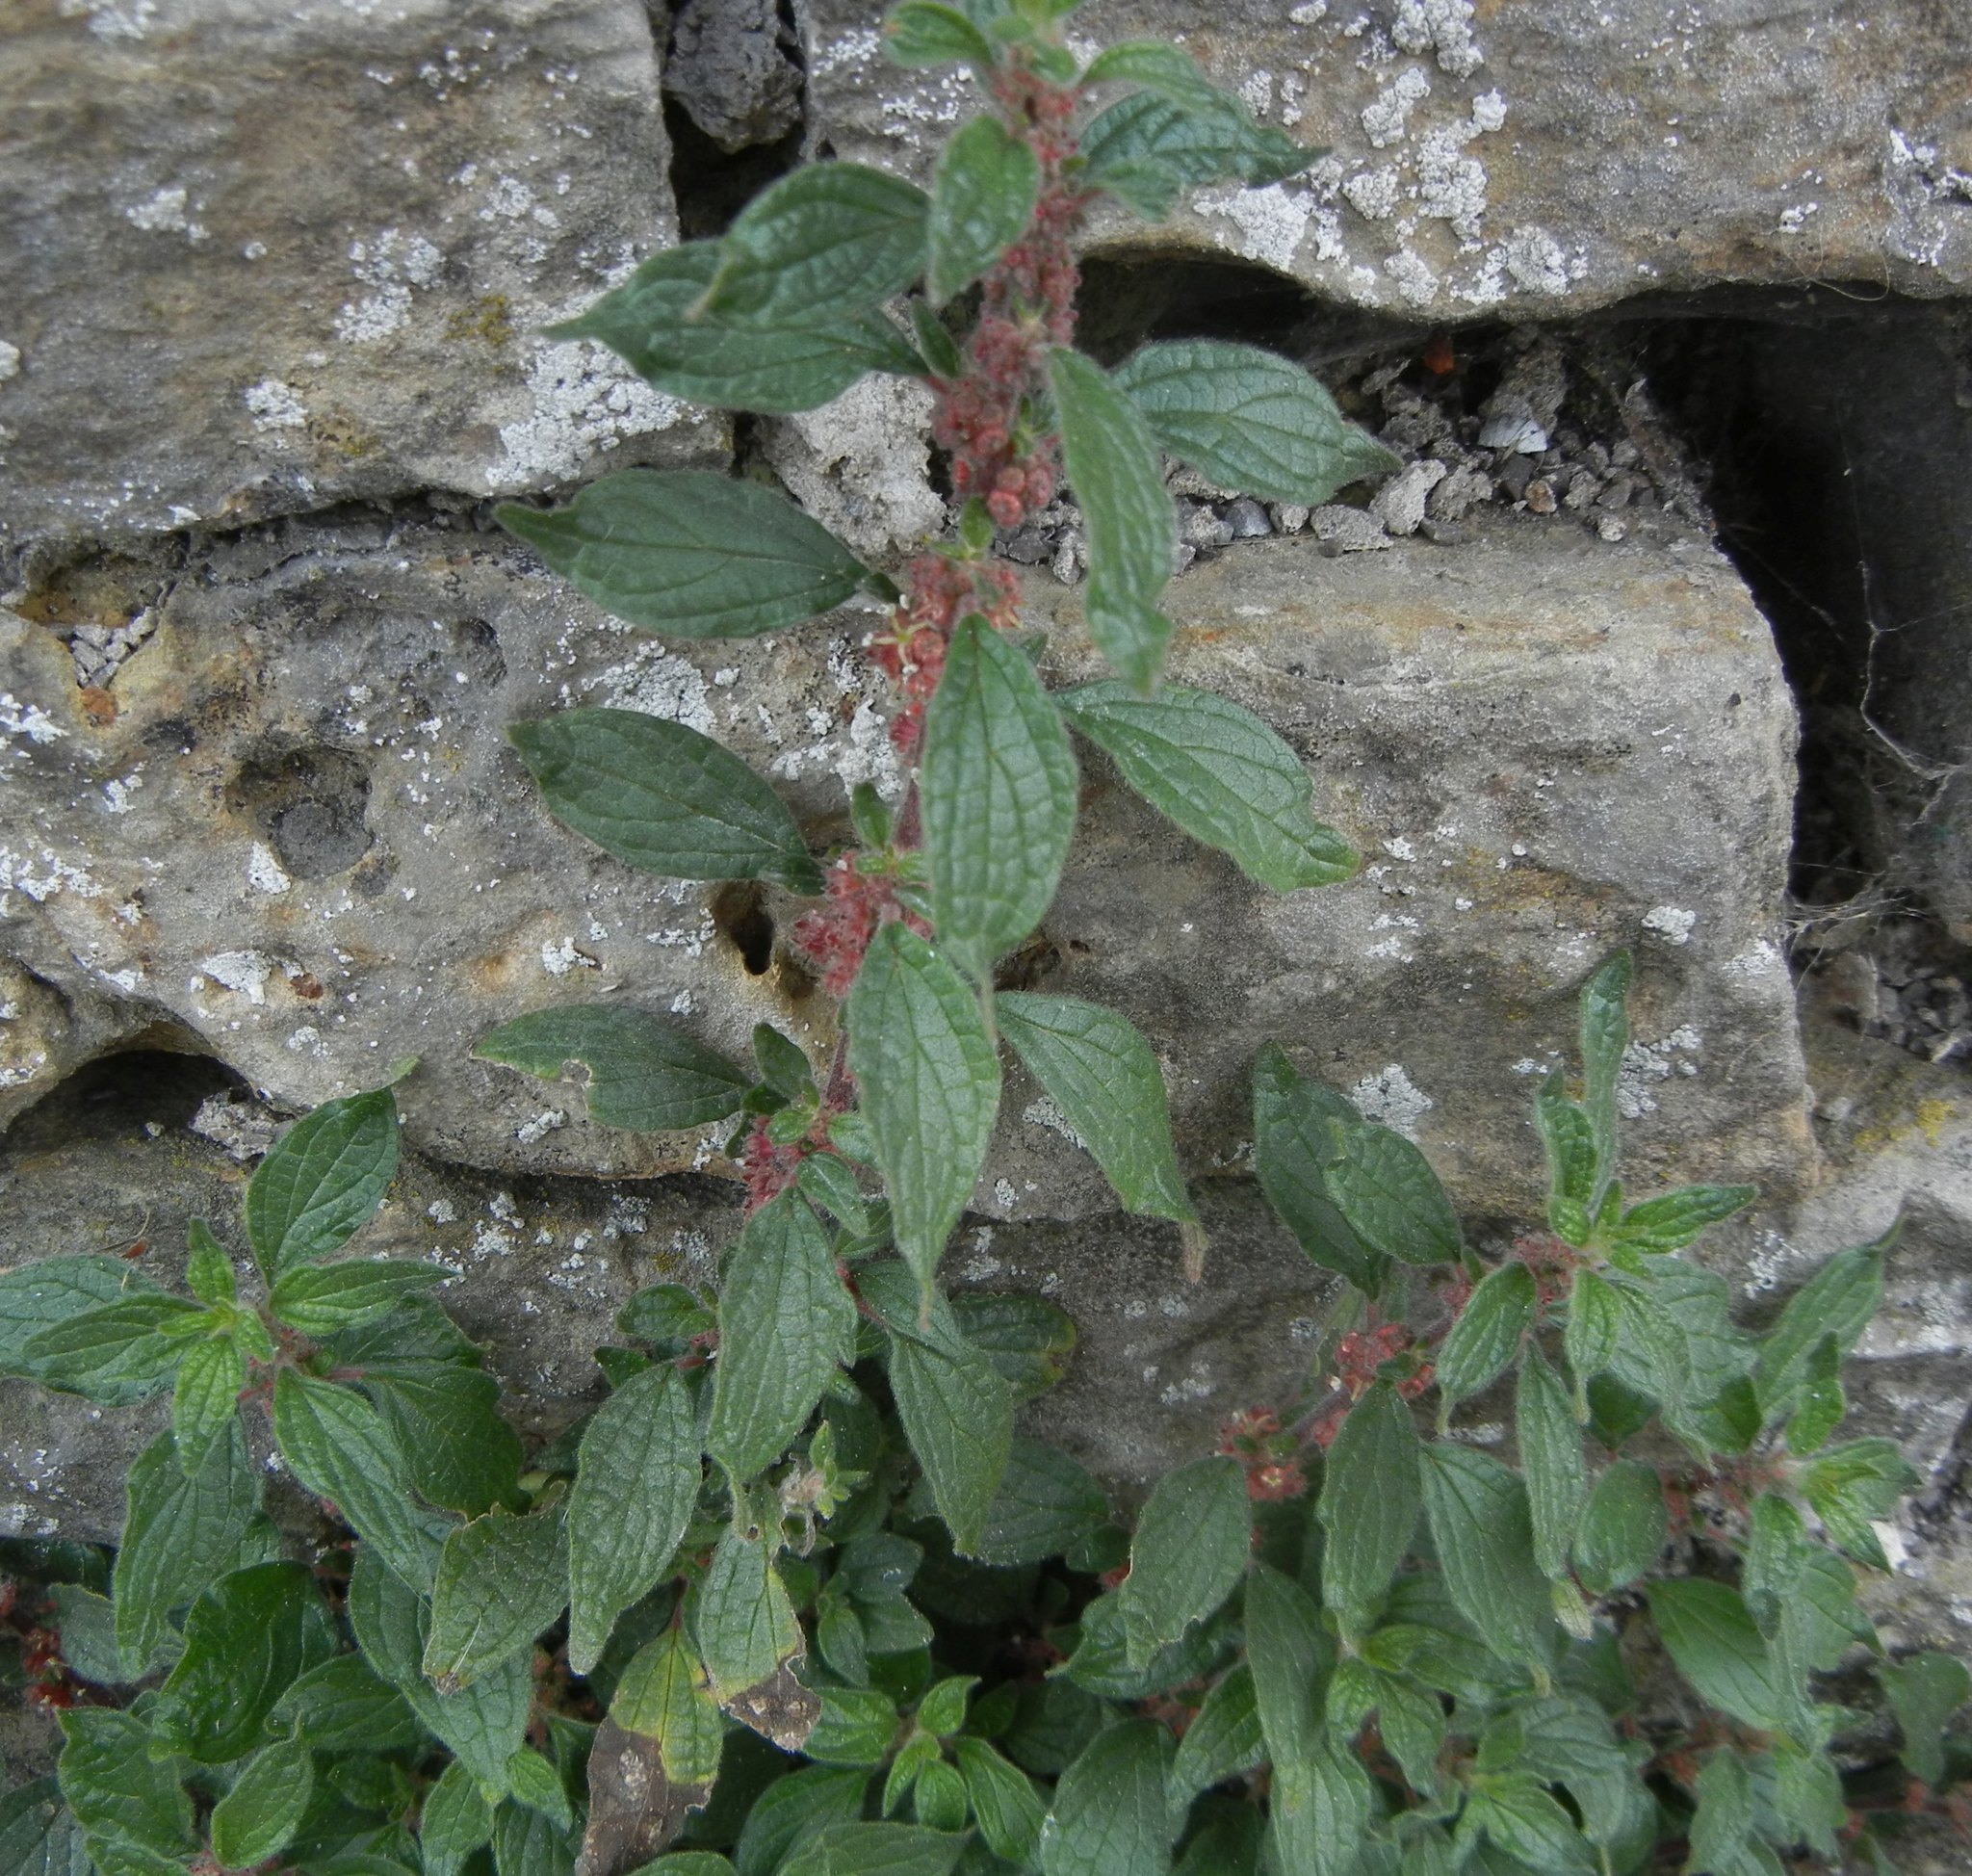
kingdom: Plantae
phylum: Tracheophyta
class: Magnoliopsida
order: Rosales
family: Urticaceae
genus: Parietaria
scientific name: Parietaria judaica
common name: Pellitory-of-the-wall
